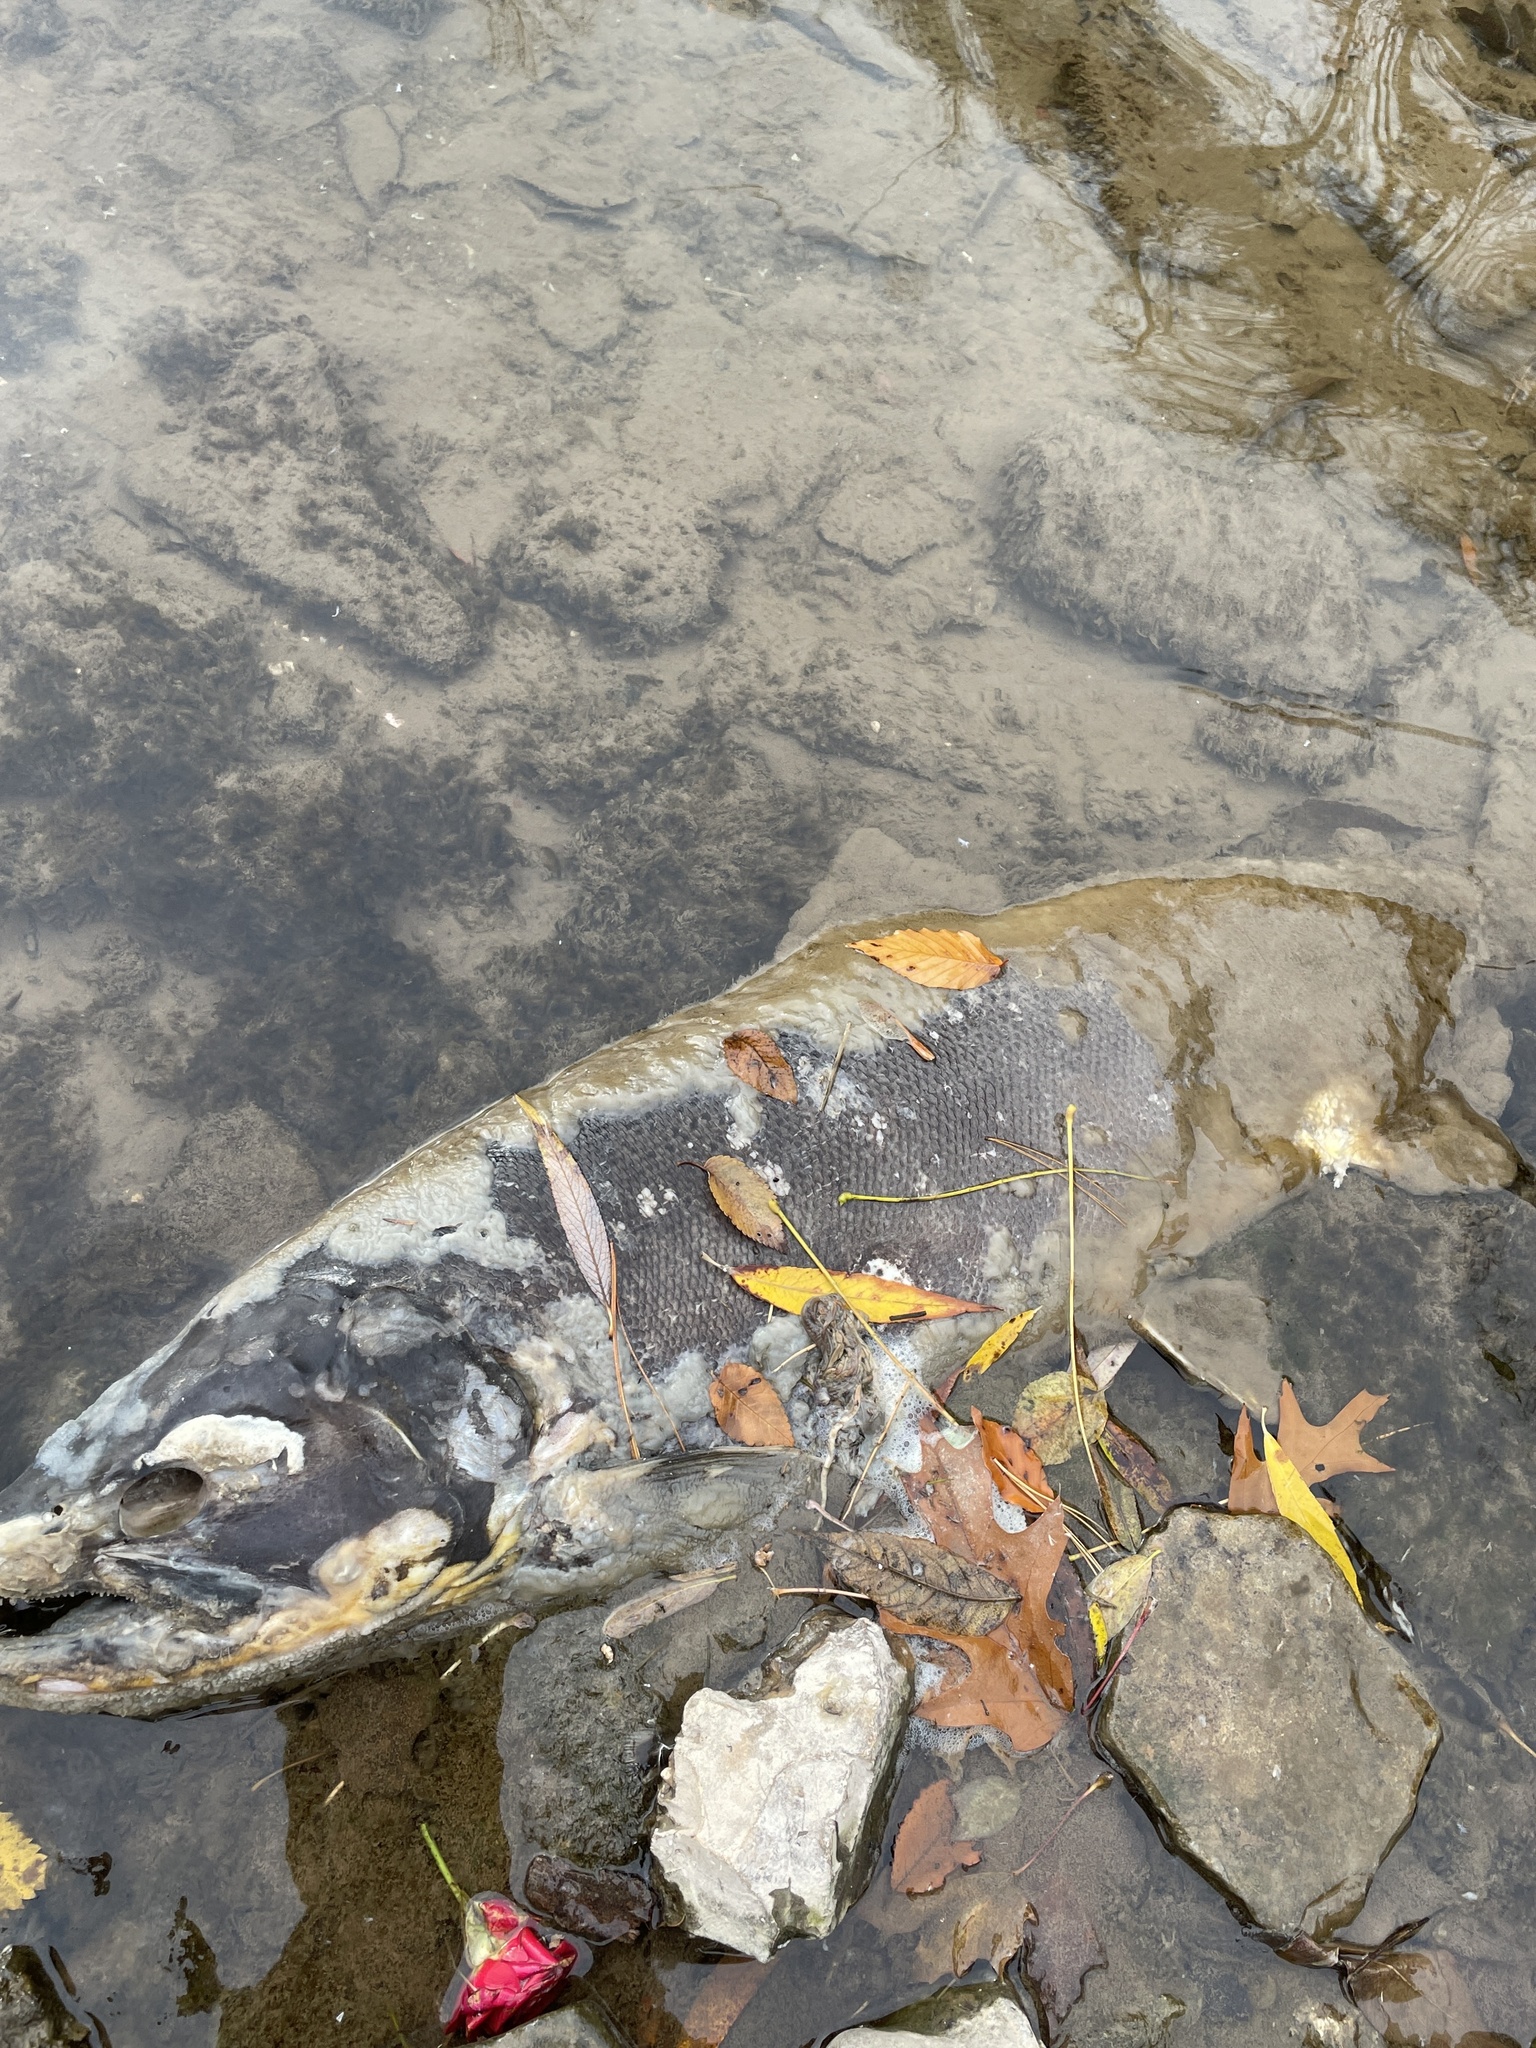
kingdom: Animalia
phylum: Chordata
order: Salmoniformes
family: Salmonidae
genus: Oncorhynchus
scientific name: Oncorhynchus tshawytscha
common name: Chinook salmon
